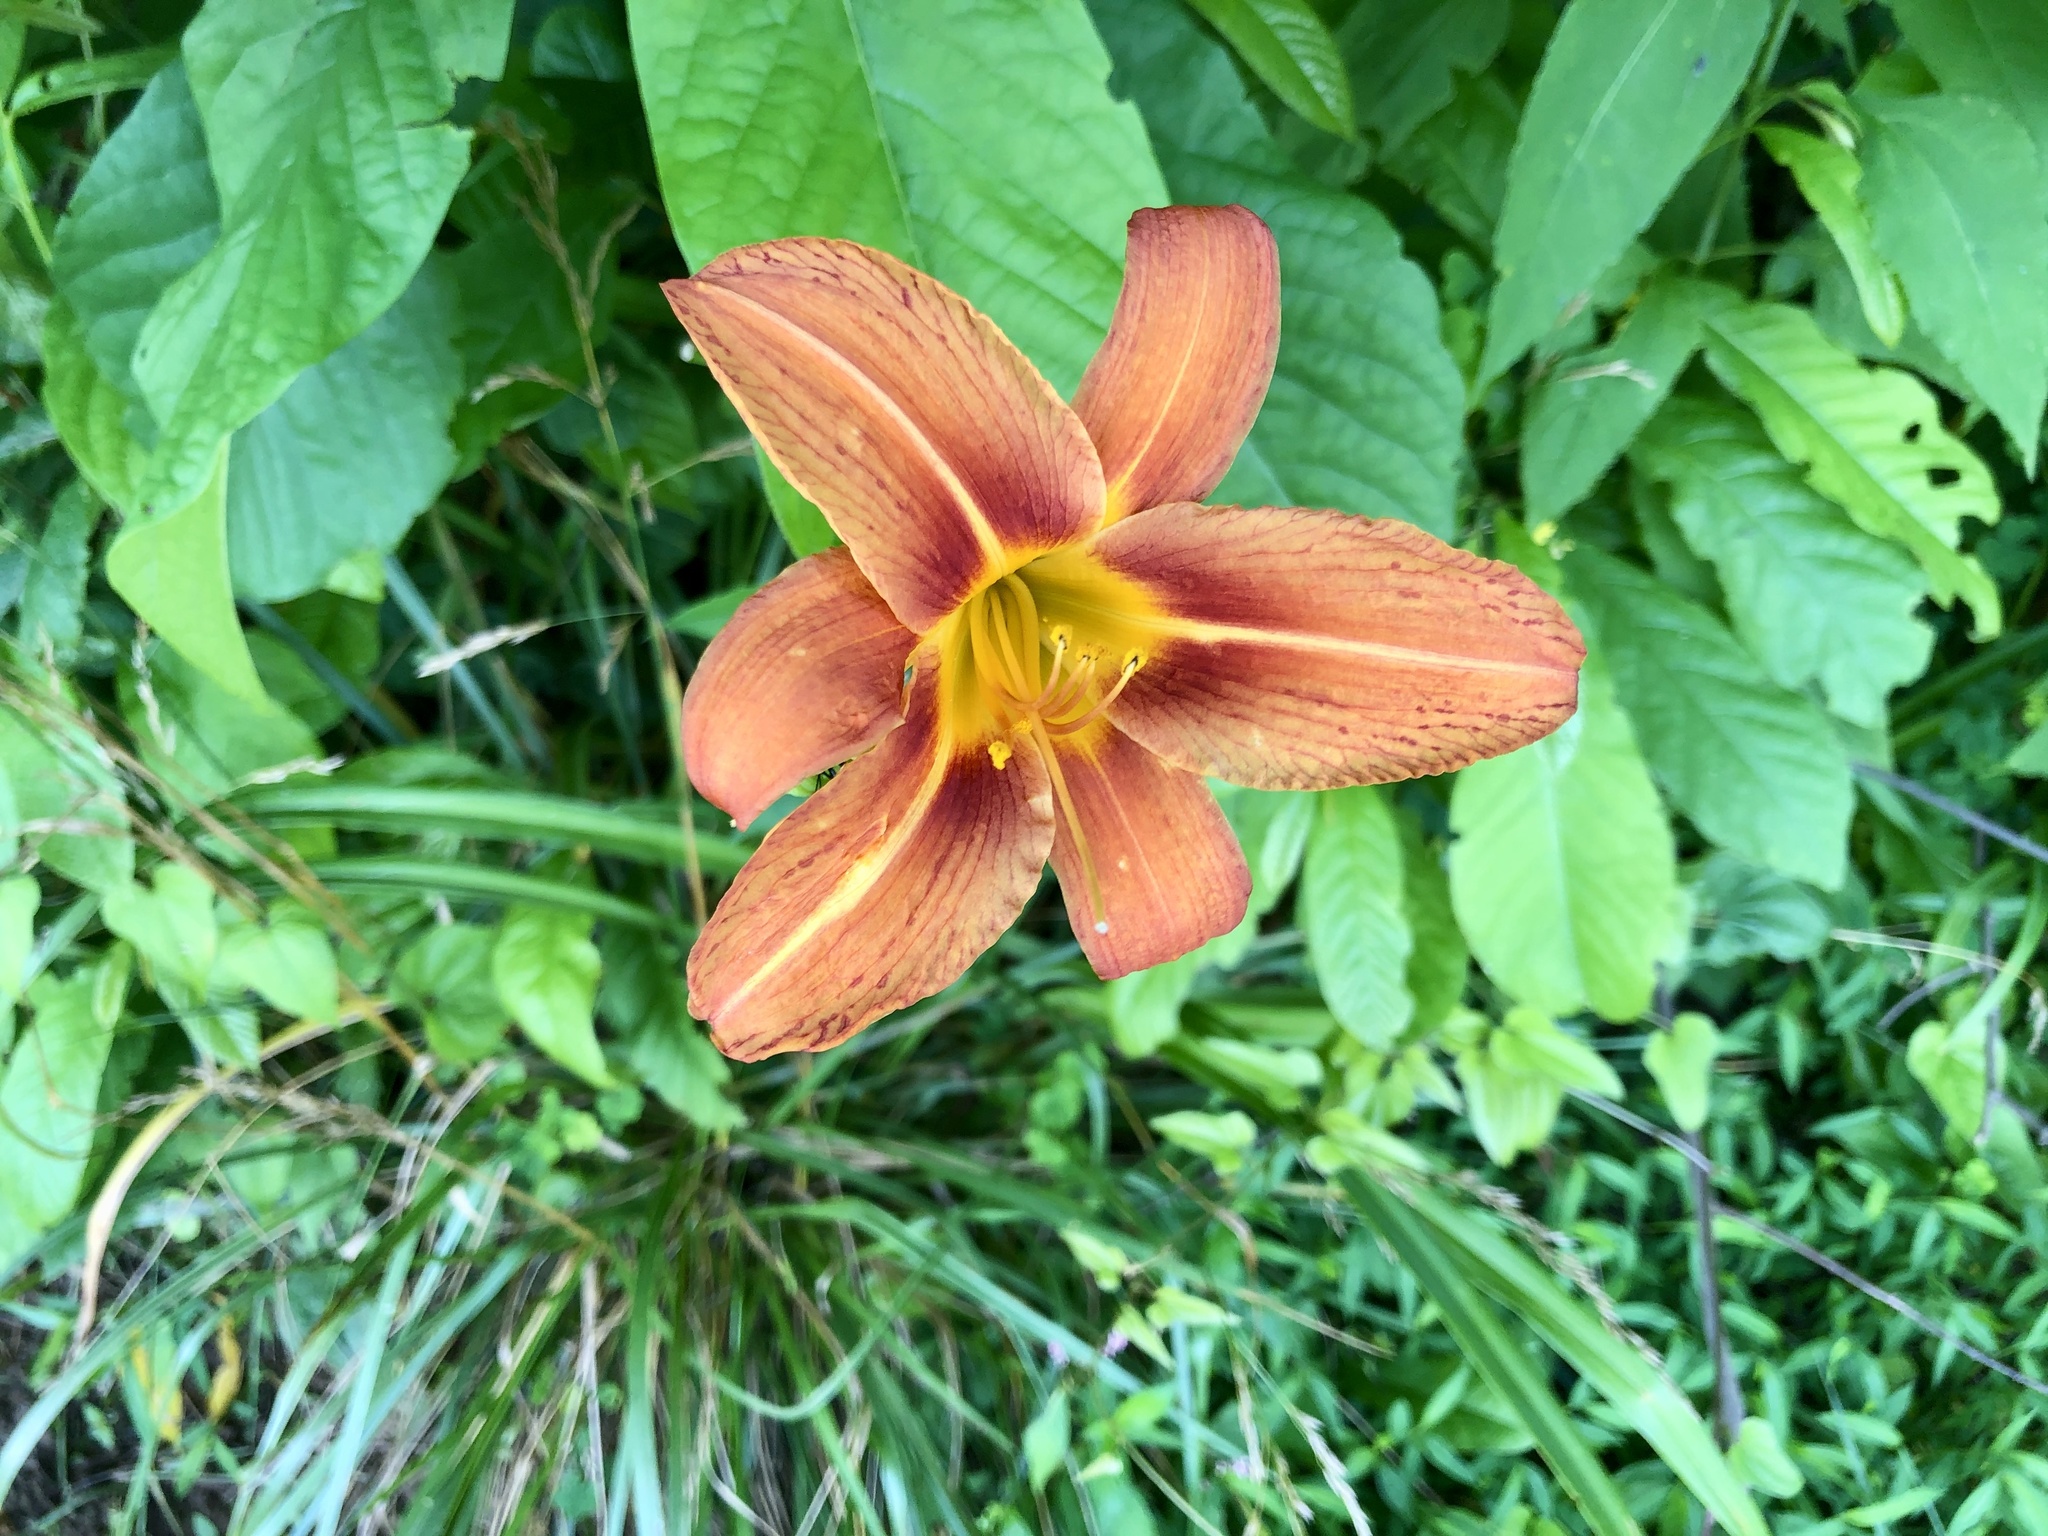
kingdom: Plantae
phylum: Tracheophyta
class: Liliopsida
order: Asparagales
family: Asphodelaceae
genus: Hemerocallis
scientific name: Hemerocallis fulva
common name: Orange day-lily
